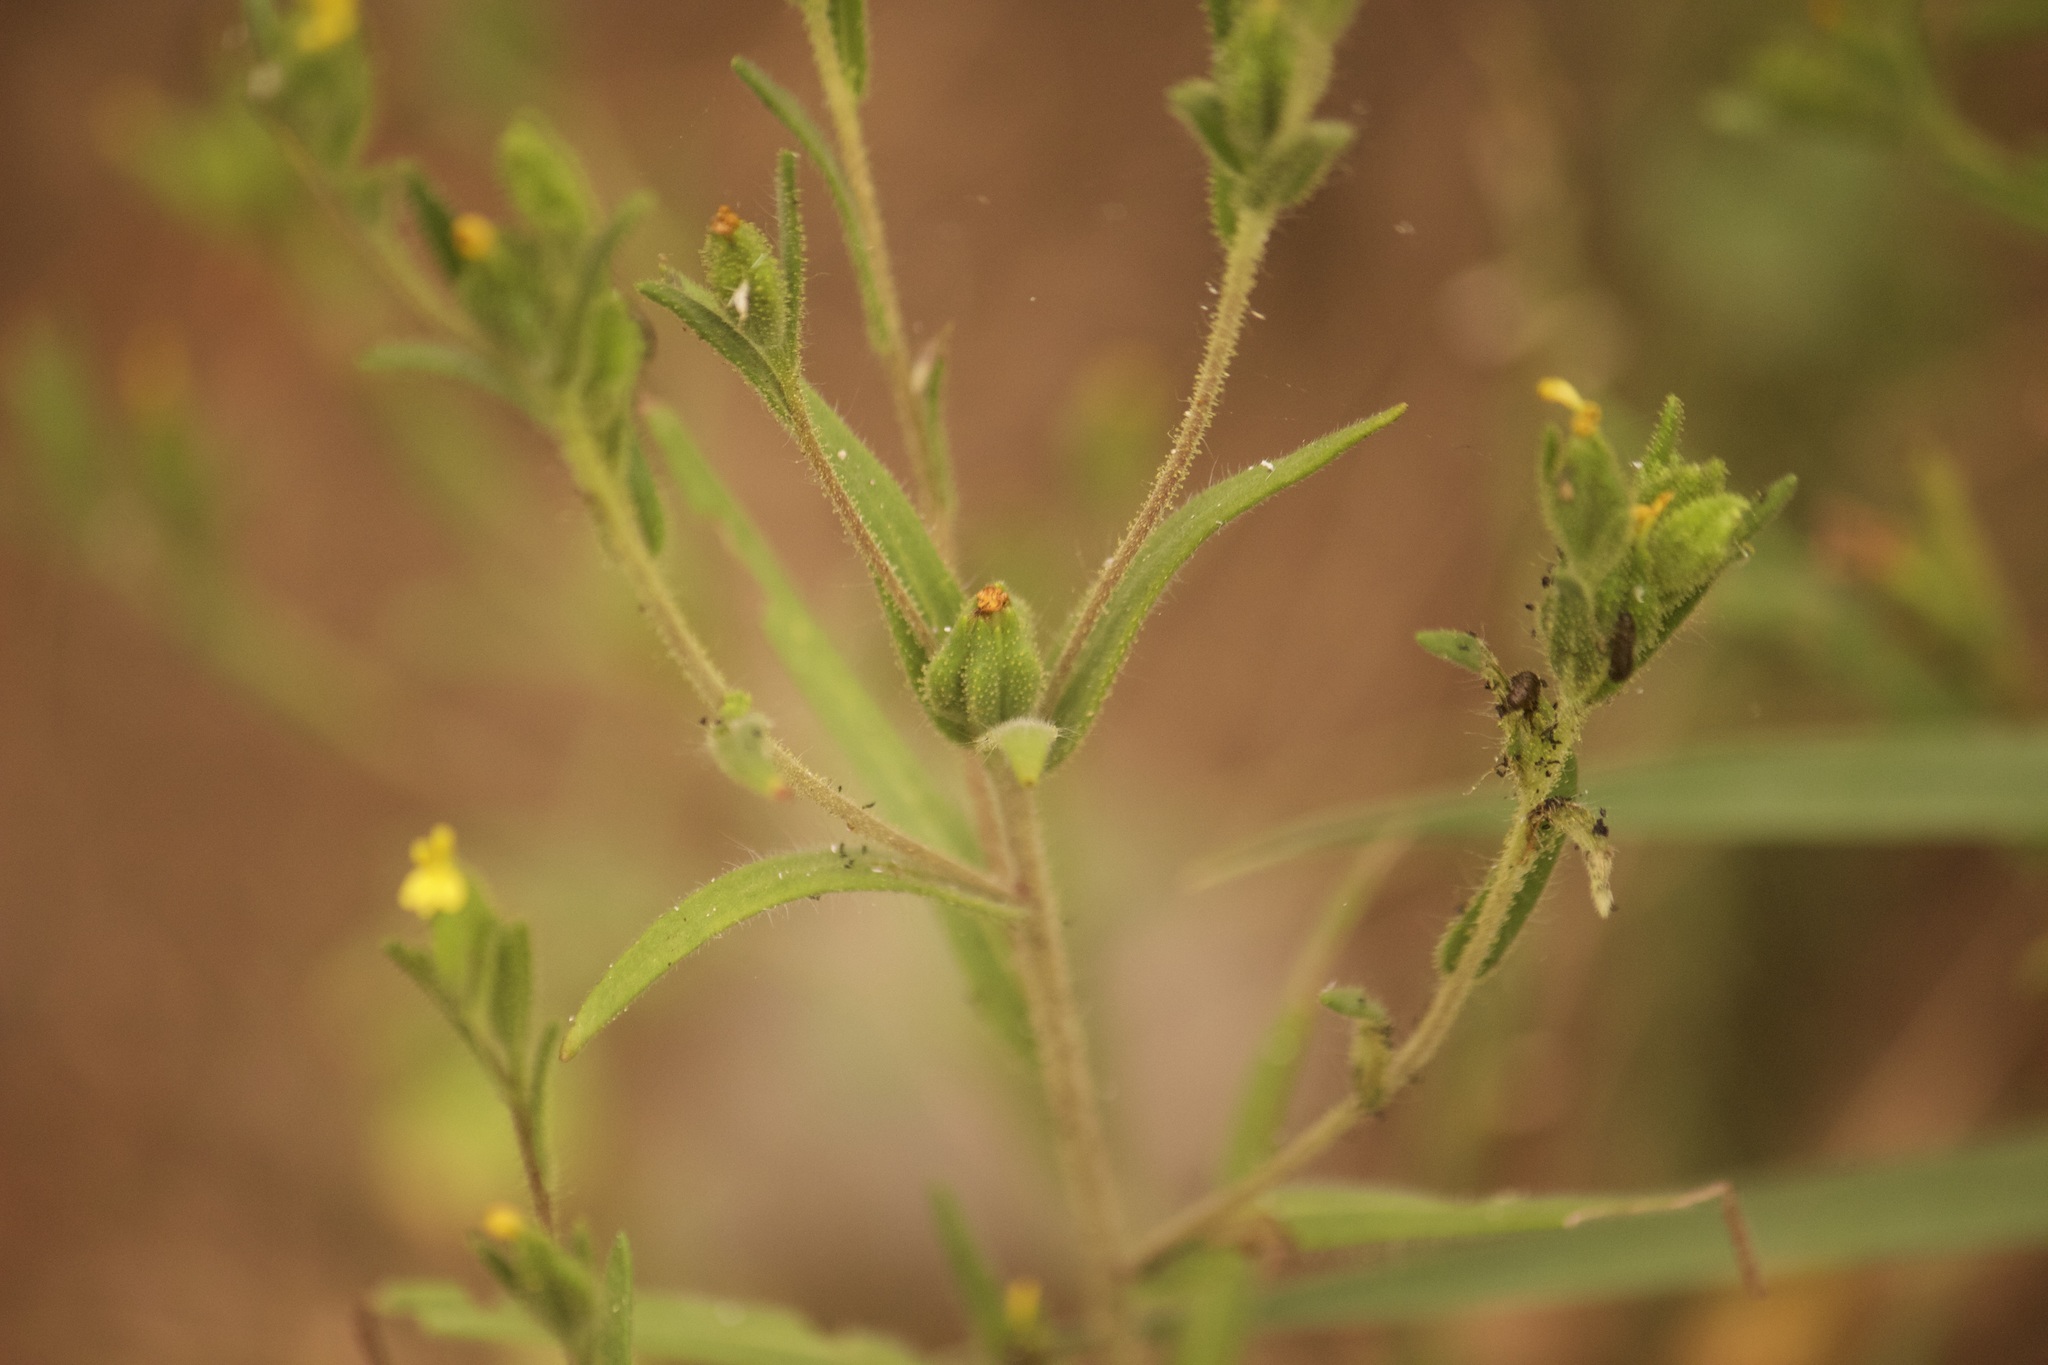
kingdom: Plantae
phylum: Tracheophyta
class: Magnoliopsida
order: Asterales
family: Asteraceae
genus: Madia
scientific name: Madia glomerata
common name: Mountain tarweed
